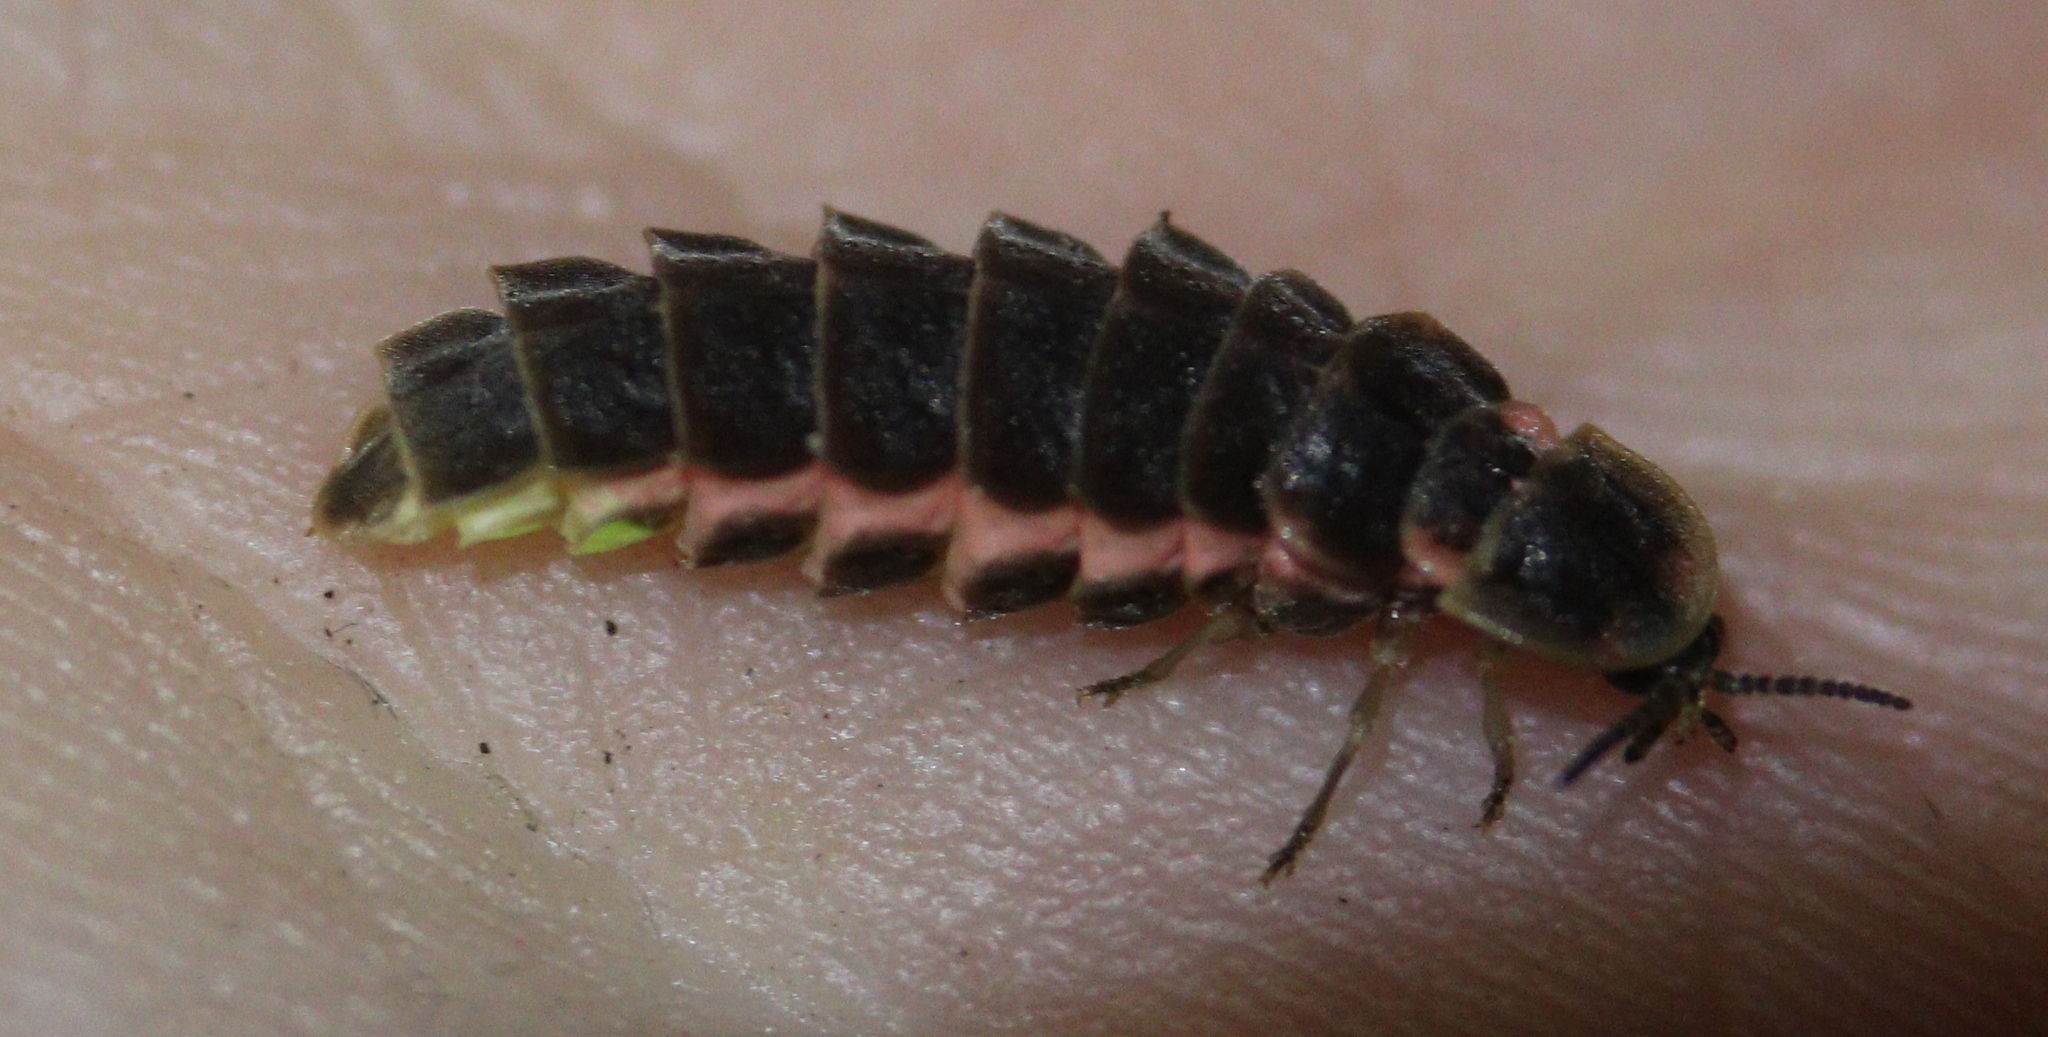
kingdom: Animalia
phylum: Arthropoda
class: Insecta
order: Coleoptera
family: Lampyridae
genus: Lampyris
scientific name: Lampyris noctiluca
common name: Glow-worm
